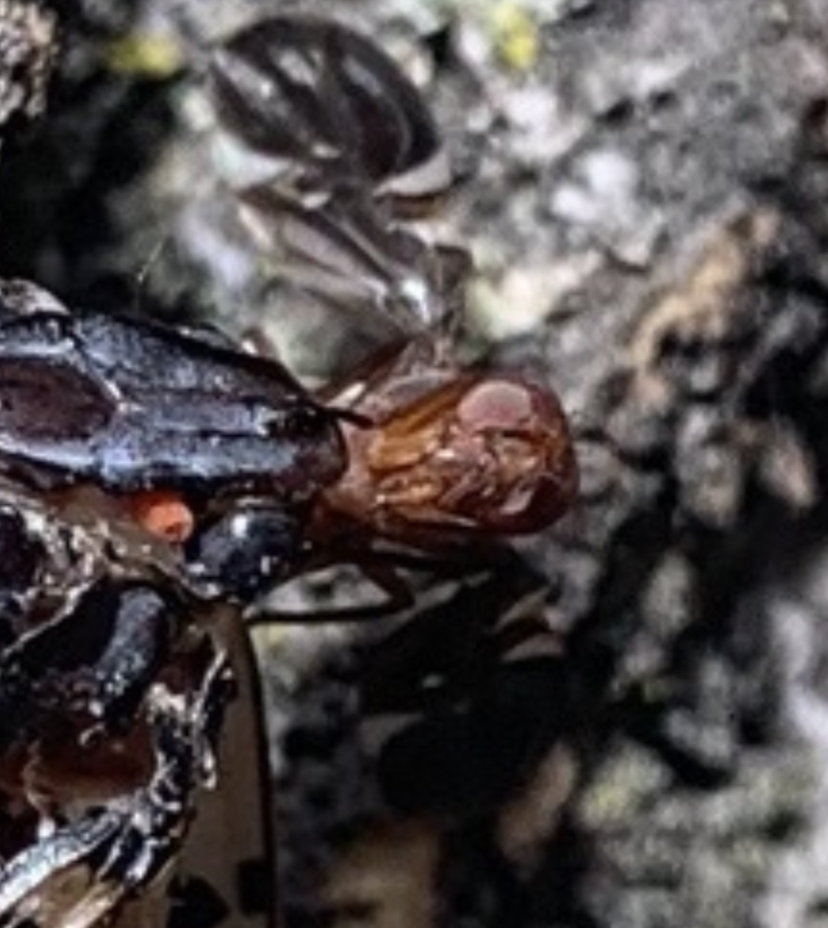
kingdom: Animalia
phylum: Arthropoda
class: Insecta
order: Diptera
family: Ulidiidae
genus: Delphinia
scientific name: Delphinia picta
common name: Common picture-winged fly
